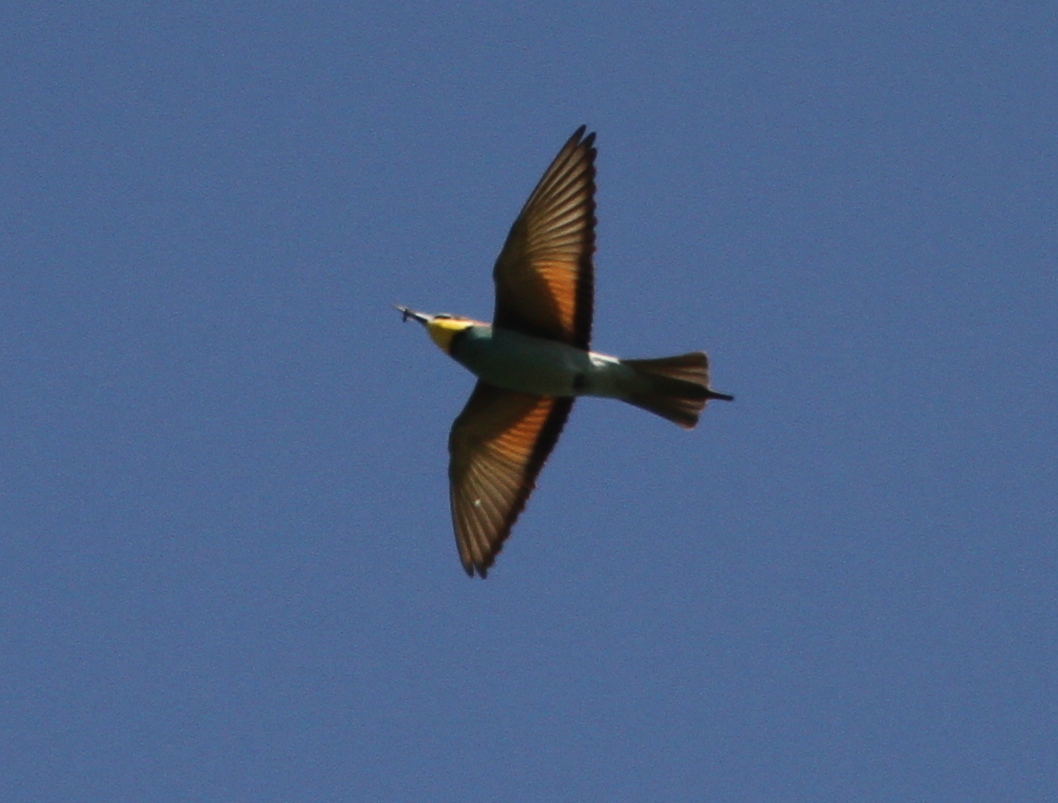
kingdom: Animalia
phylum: Chordata
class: Aves
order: Coraciiformes
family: Meropidae
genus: Merops
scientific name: Merops apiaster
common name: European bee-eater
